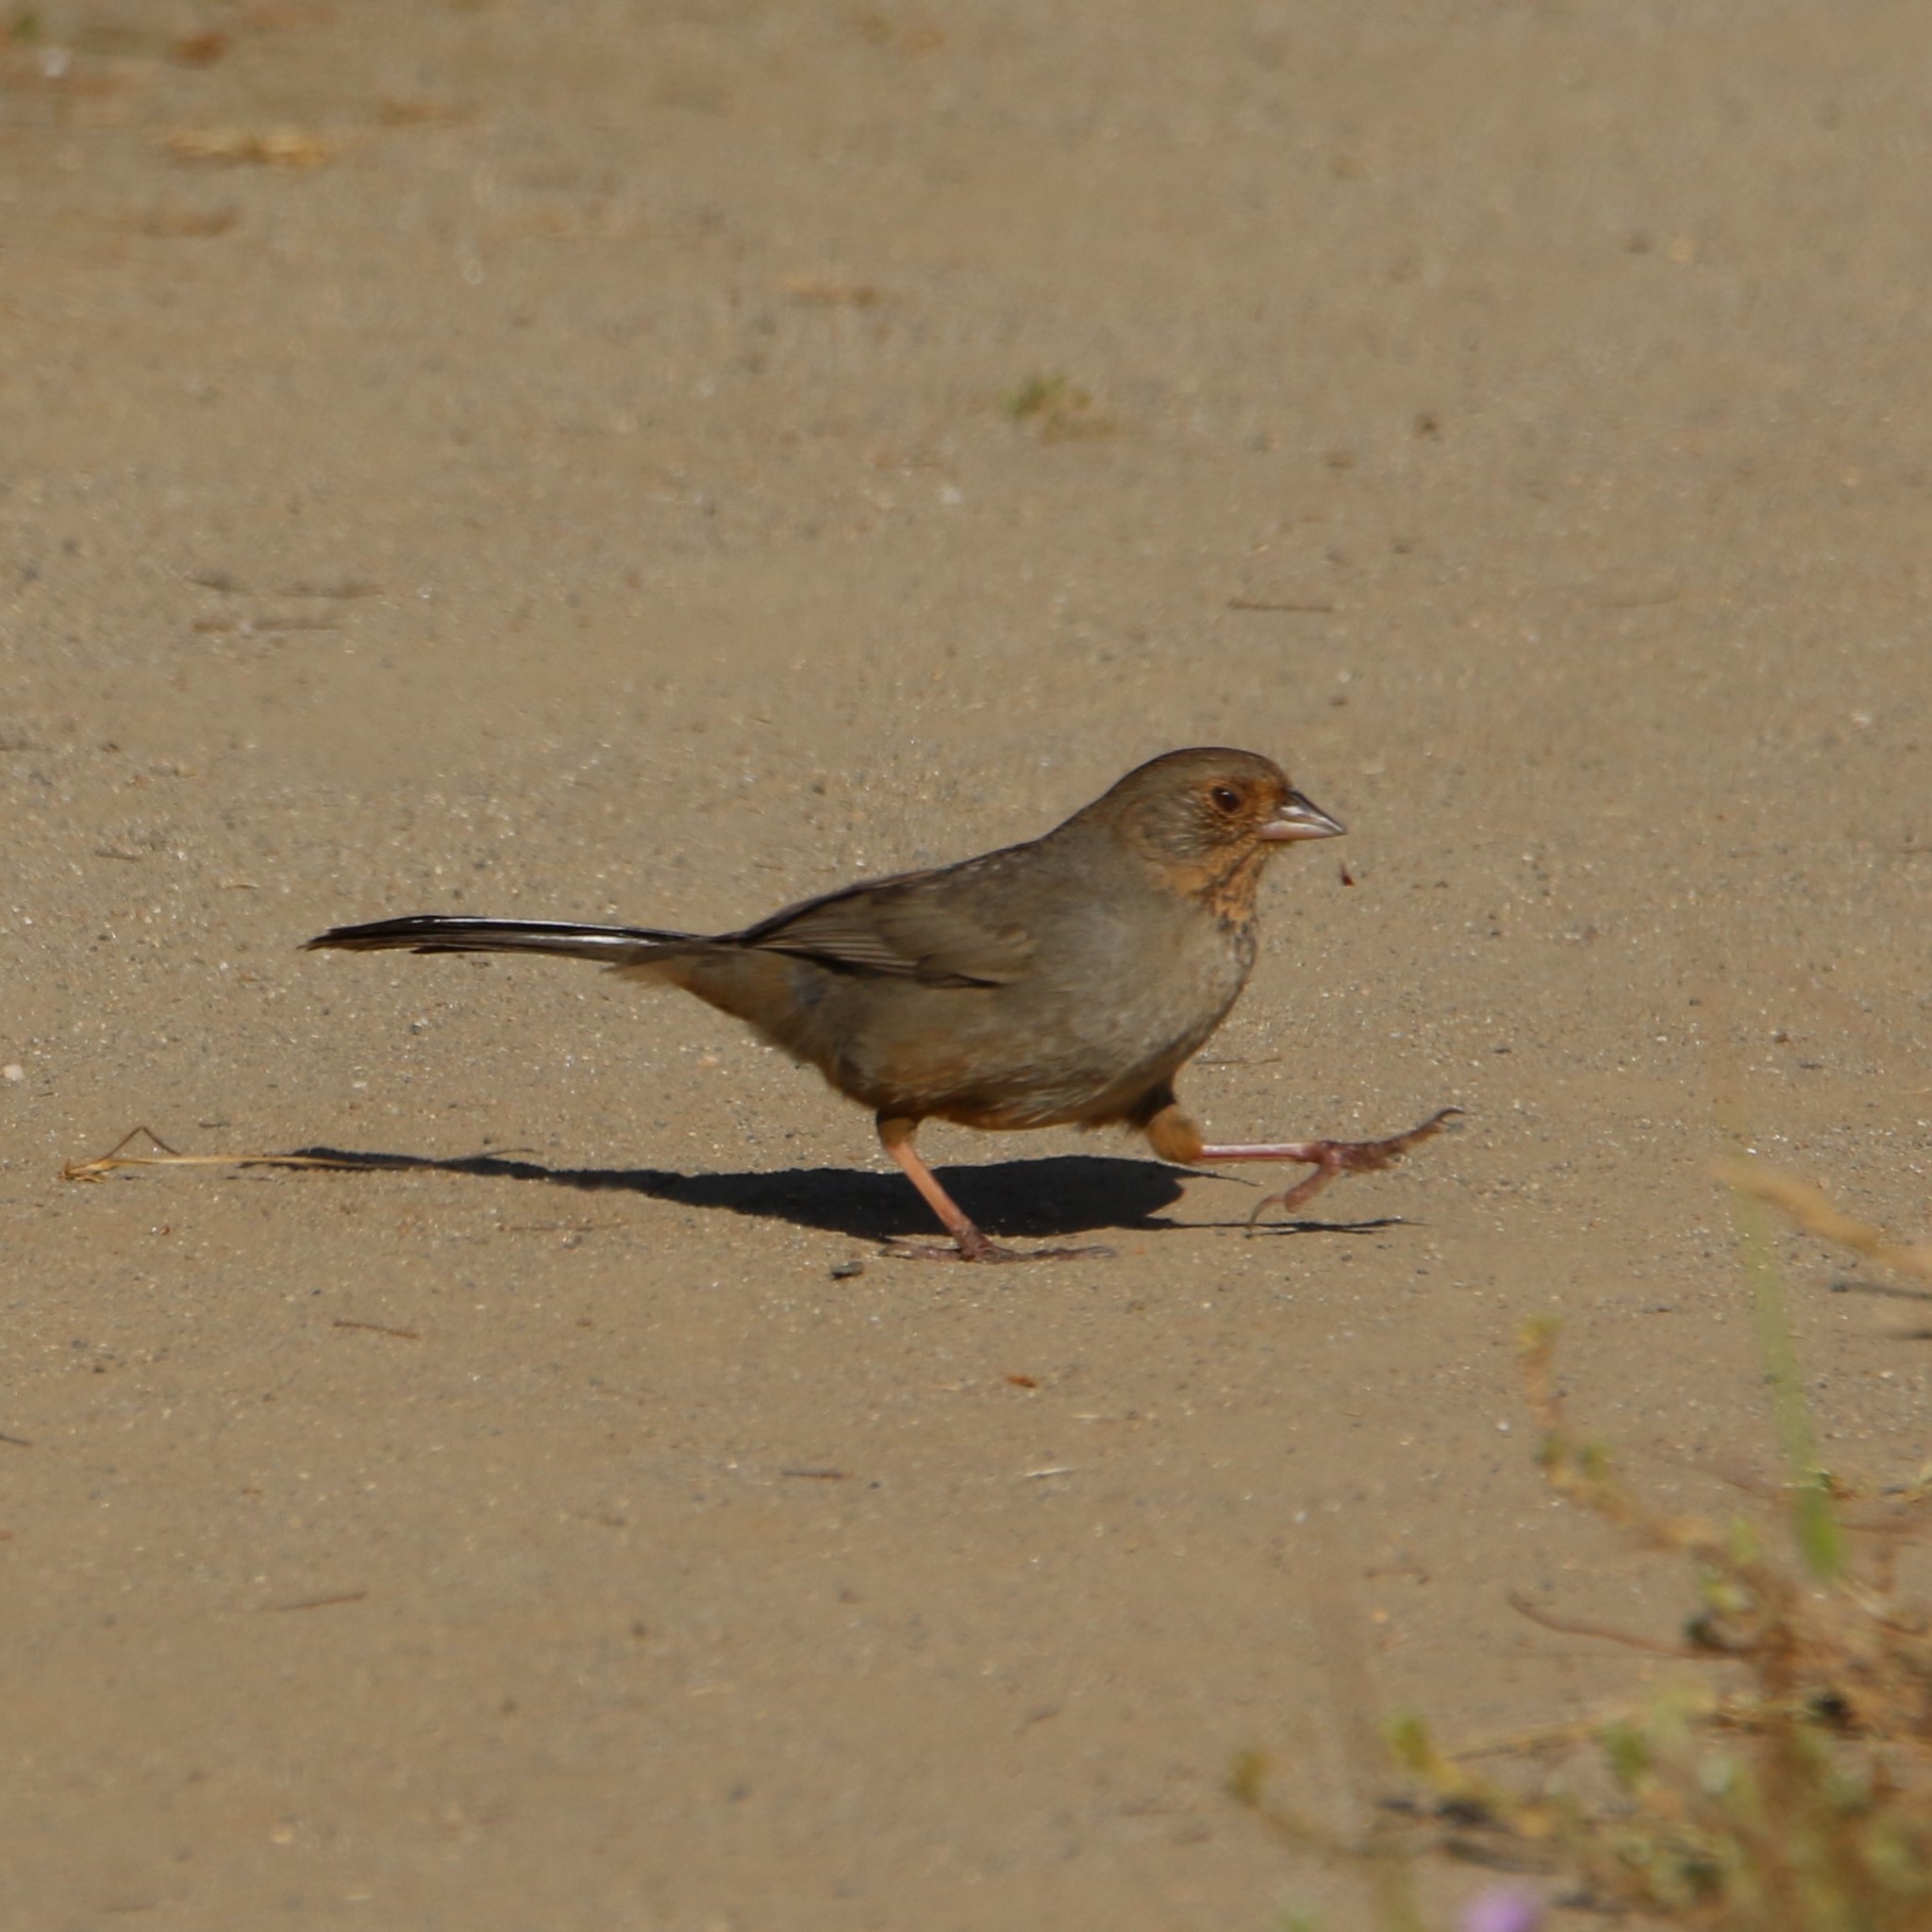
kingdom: Animalia
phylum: Chordata
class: Aves
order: Passeriformes
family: Passerellidae
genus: Melozone
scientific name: Melozone crissalis
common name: California towhee
